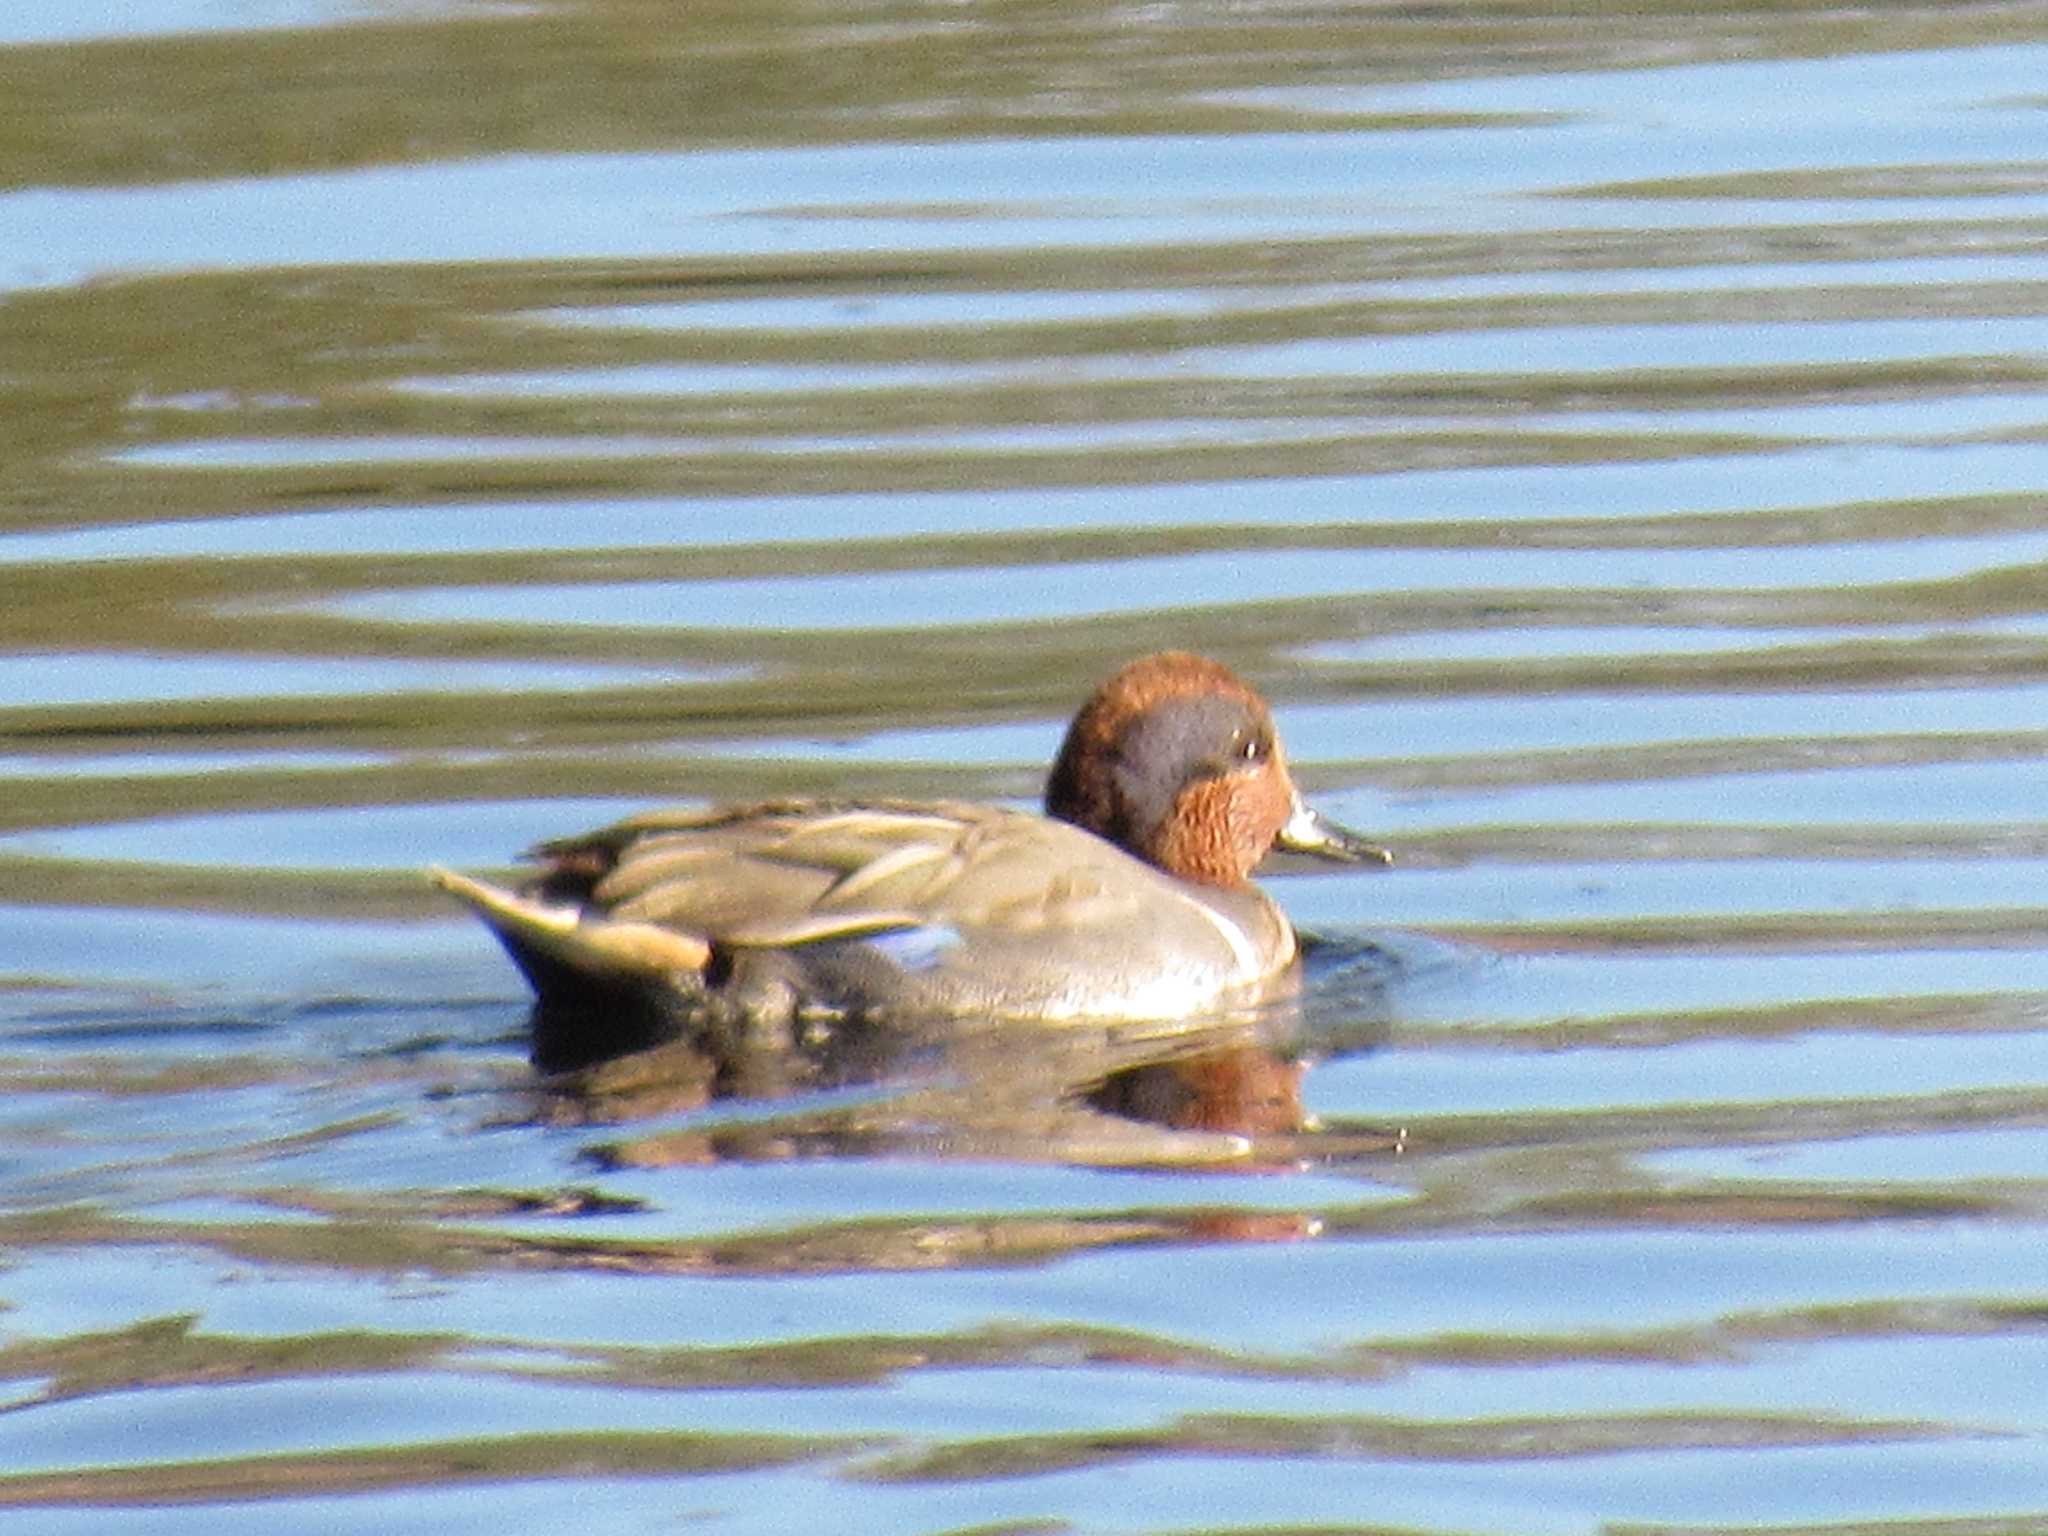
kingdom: Animalia
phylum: Chordata
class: Aves
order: Anseriformes
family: Anatidae
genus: Anas
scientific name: Anas crecca
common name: Eurasian teal
